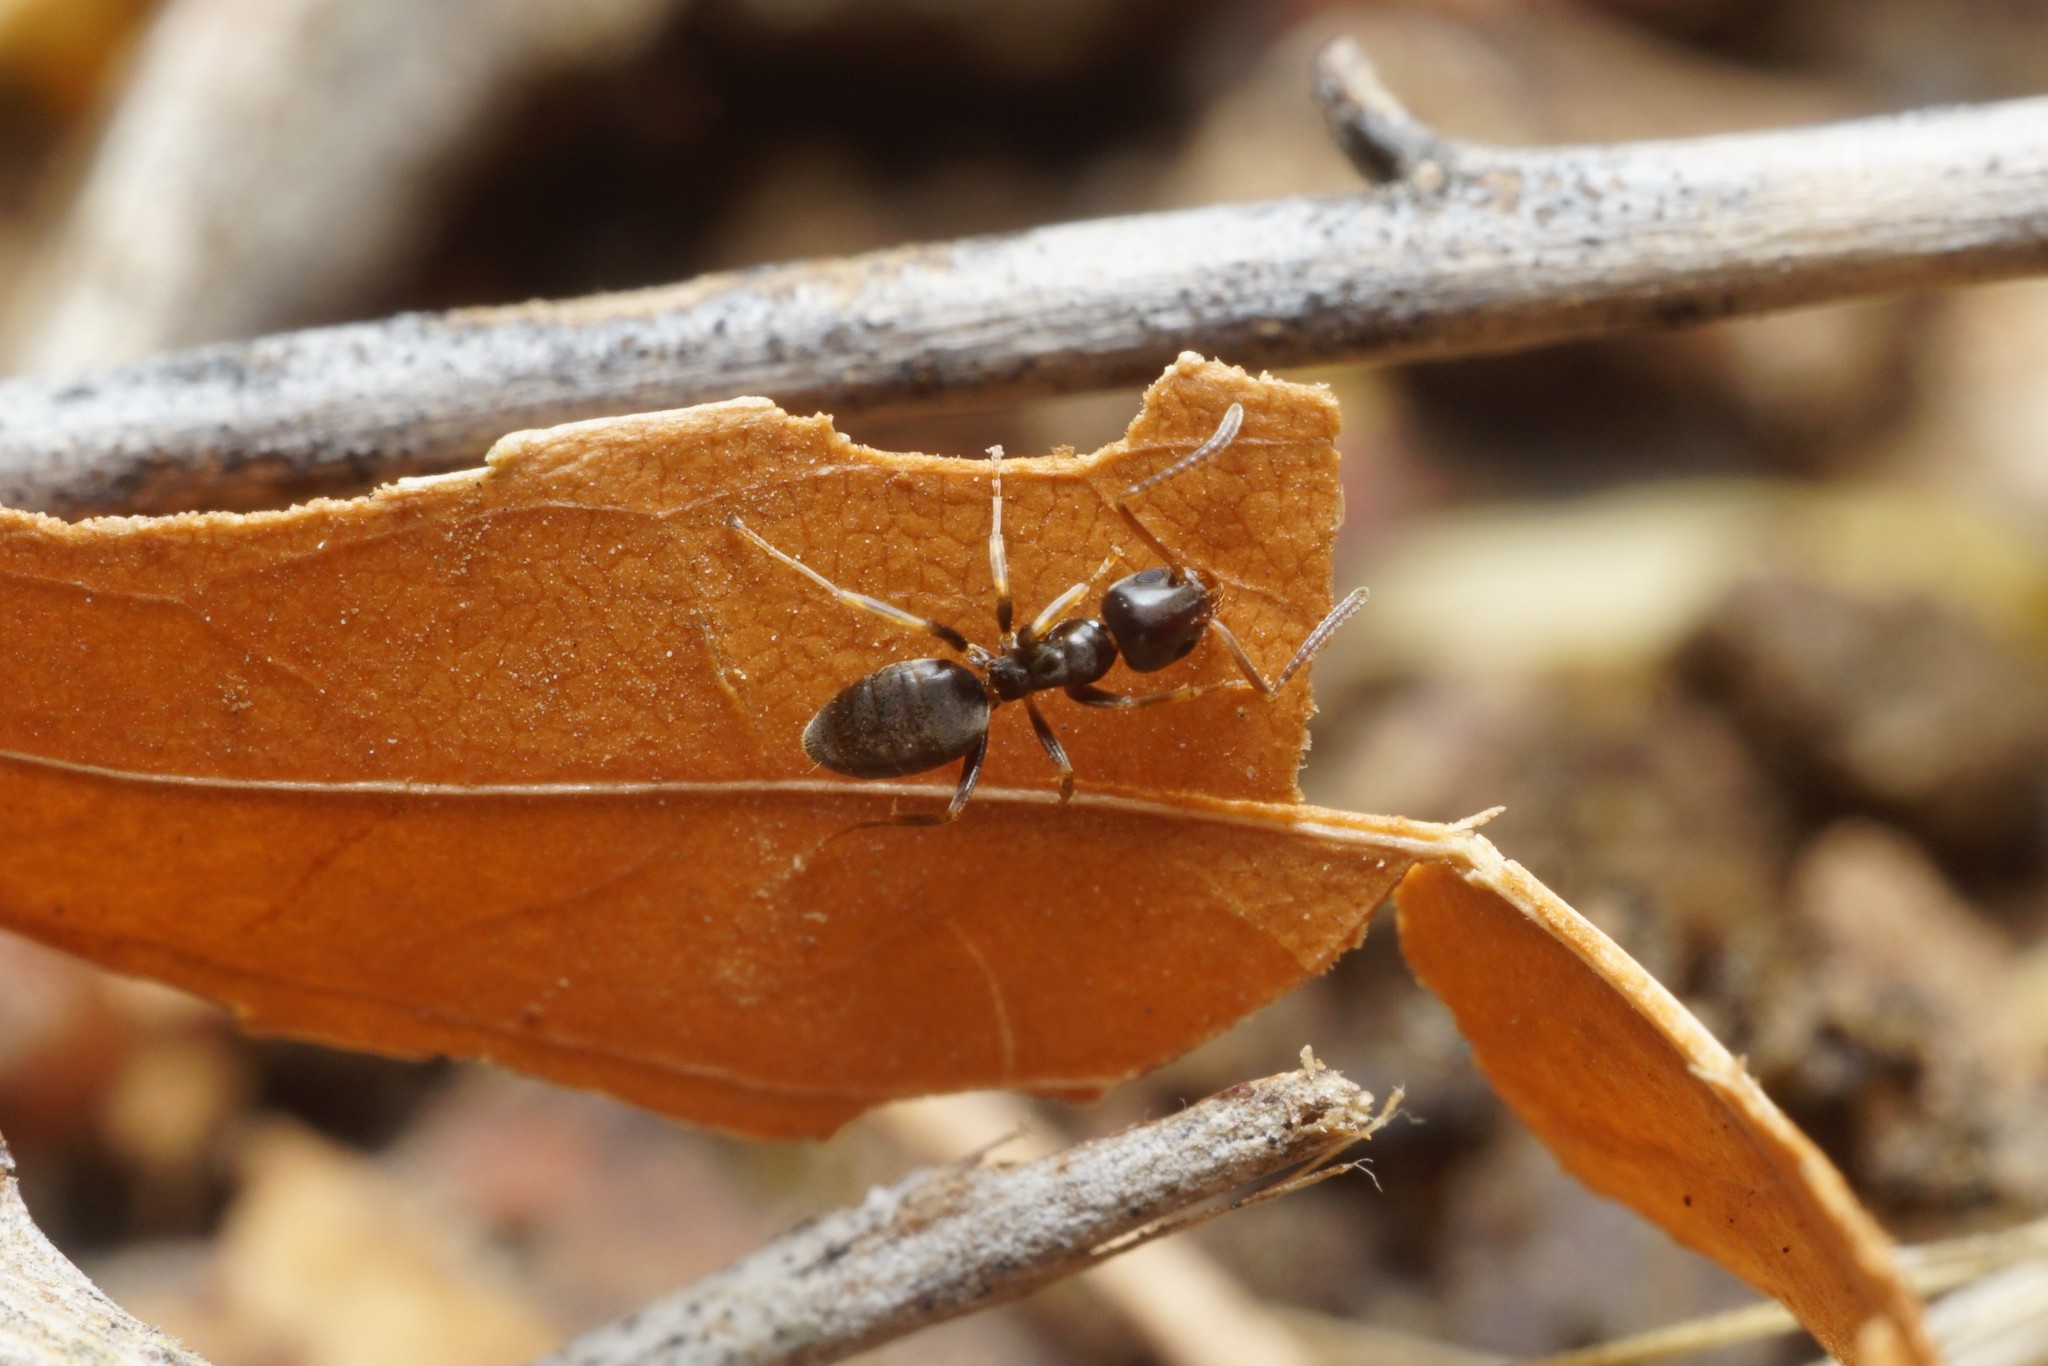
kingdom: Animalia
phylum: Arthropoda
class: Insecta
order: Hymenoptera
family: Formicidae
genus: Tapinoma
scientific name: Tapinoma sessile
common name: Odorous house ant
